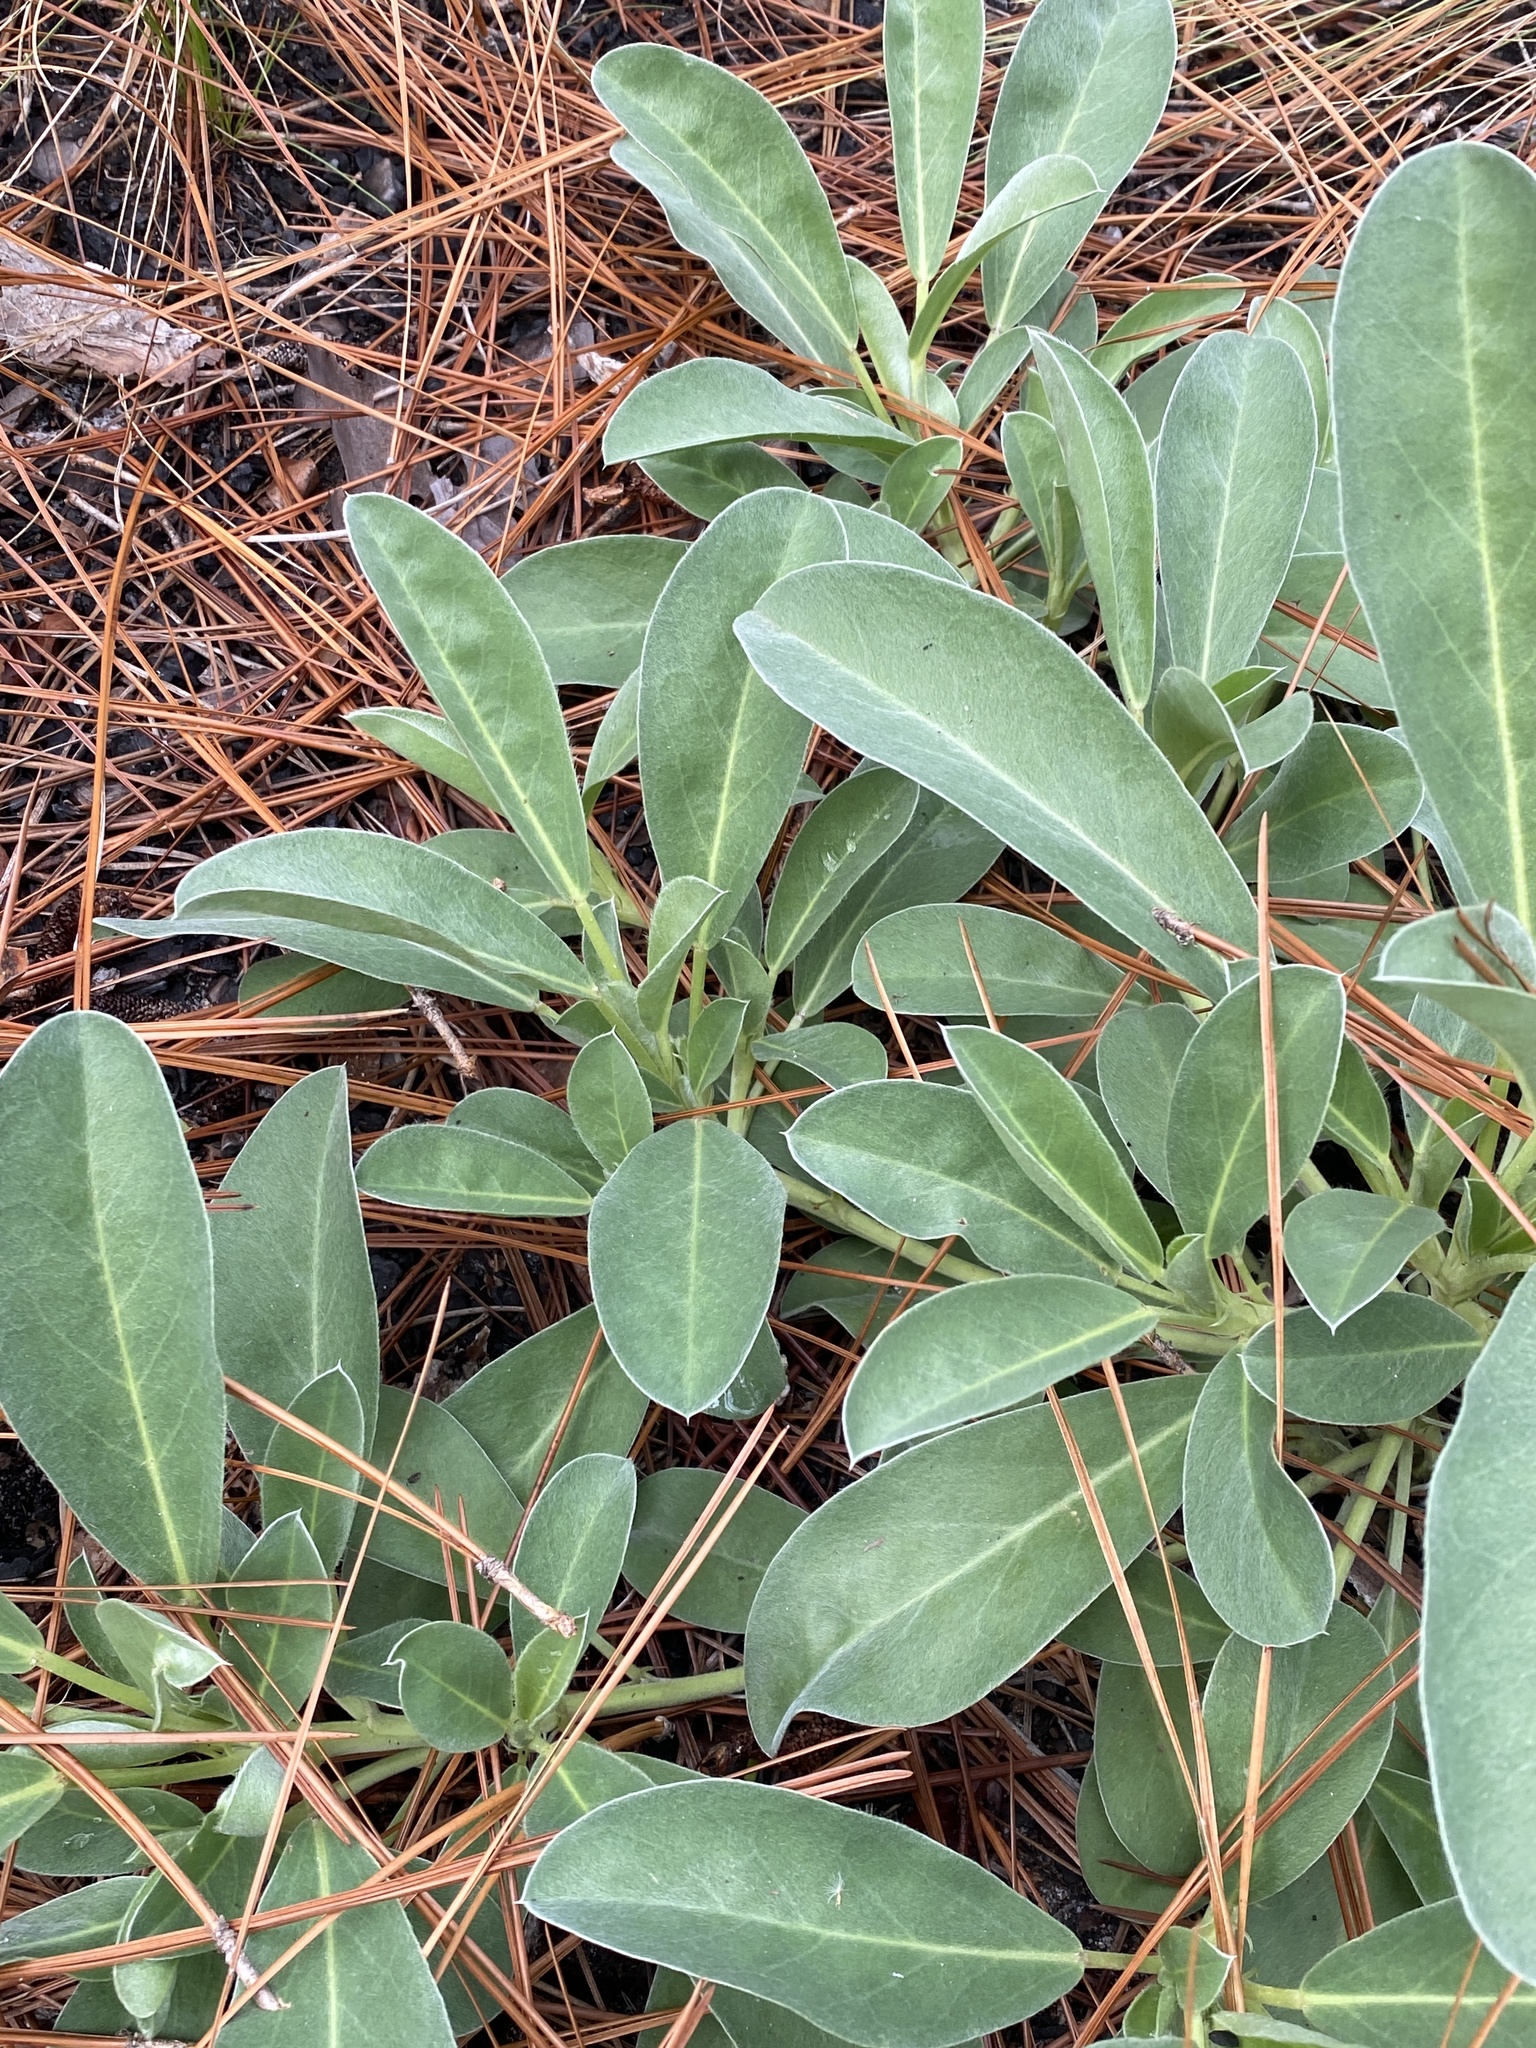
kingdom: Plantae
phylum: Tracheophyta
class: Magnoliopsida
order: Fabales
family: Fabaceae
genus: Lupinus
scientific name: Lupinus diffusus
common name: Oak ridge lupine
